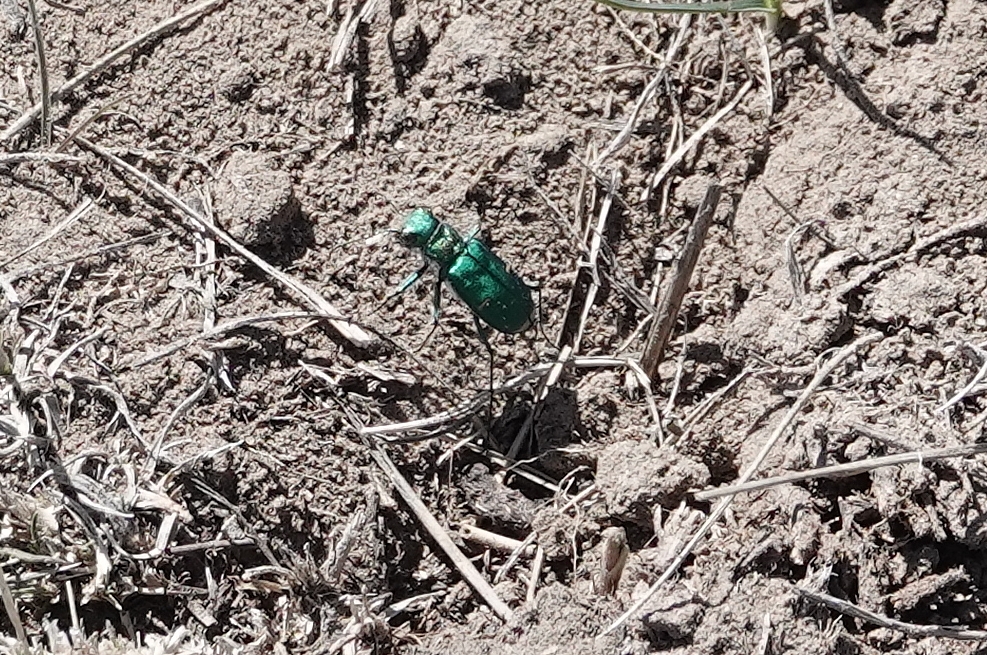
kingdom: Animalia
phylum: Arthropoda
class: Insecta
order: Coleoptera
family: Carabidae
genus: Cicindela
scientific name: Cicindela denverensis
